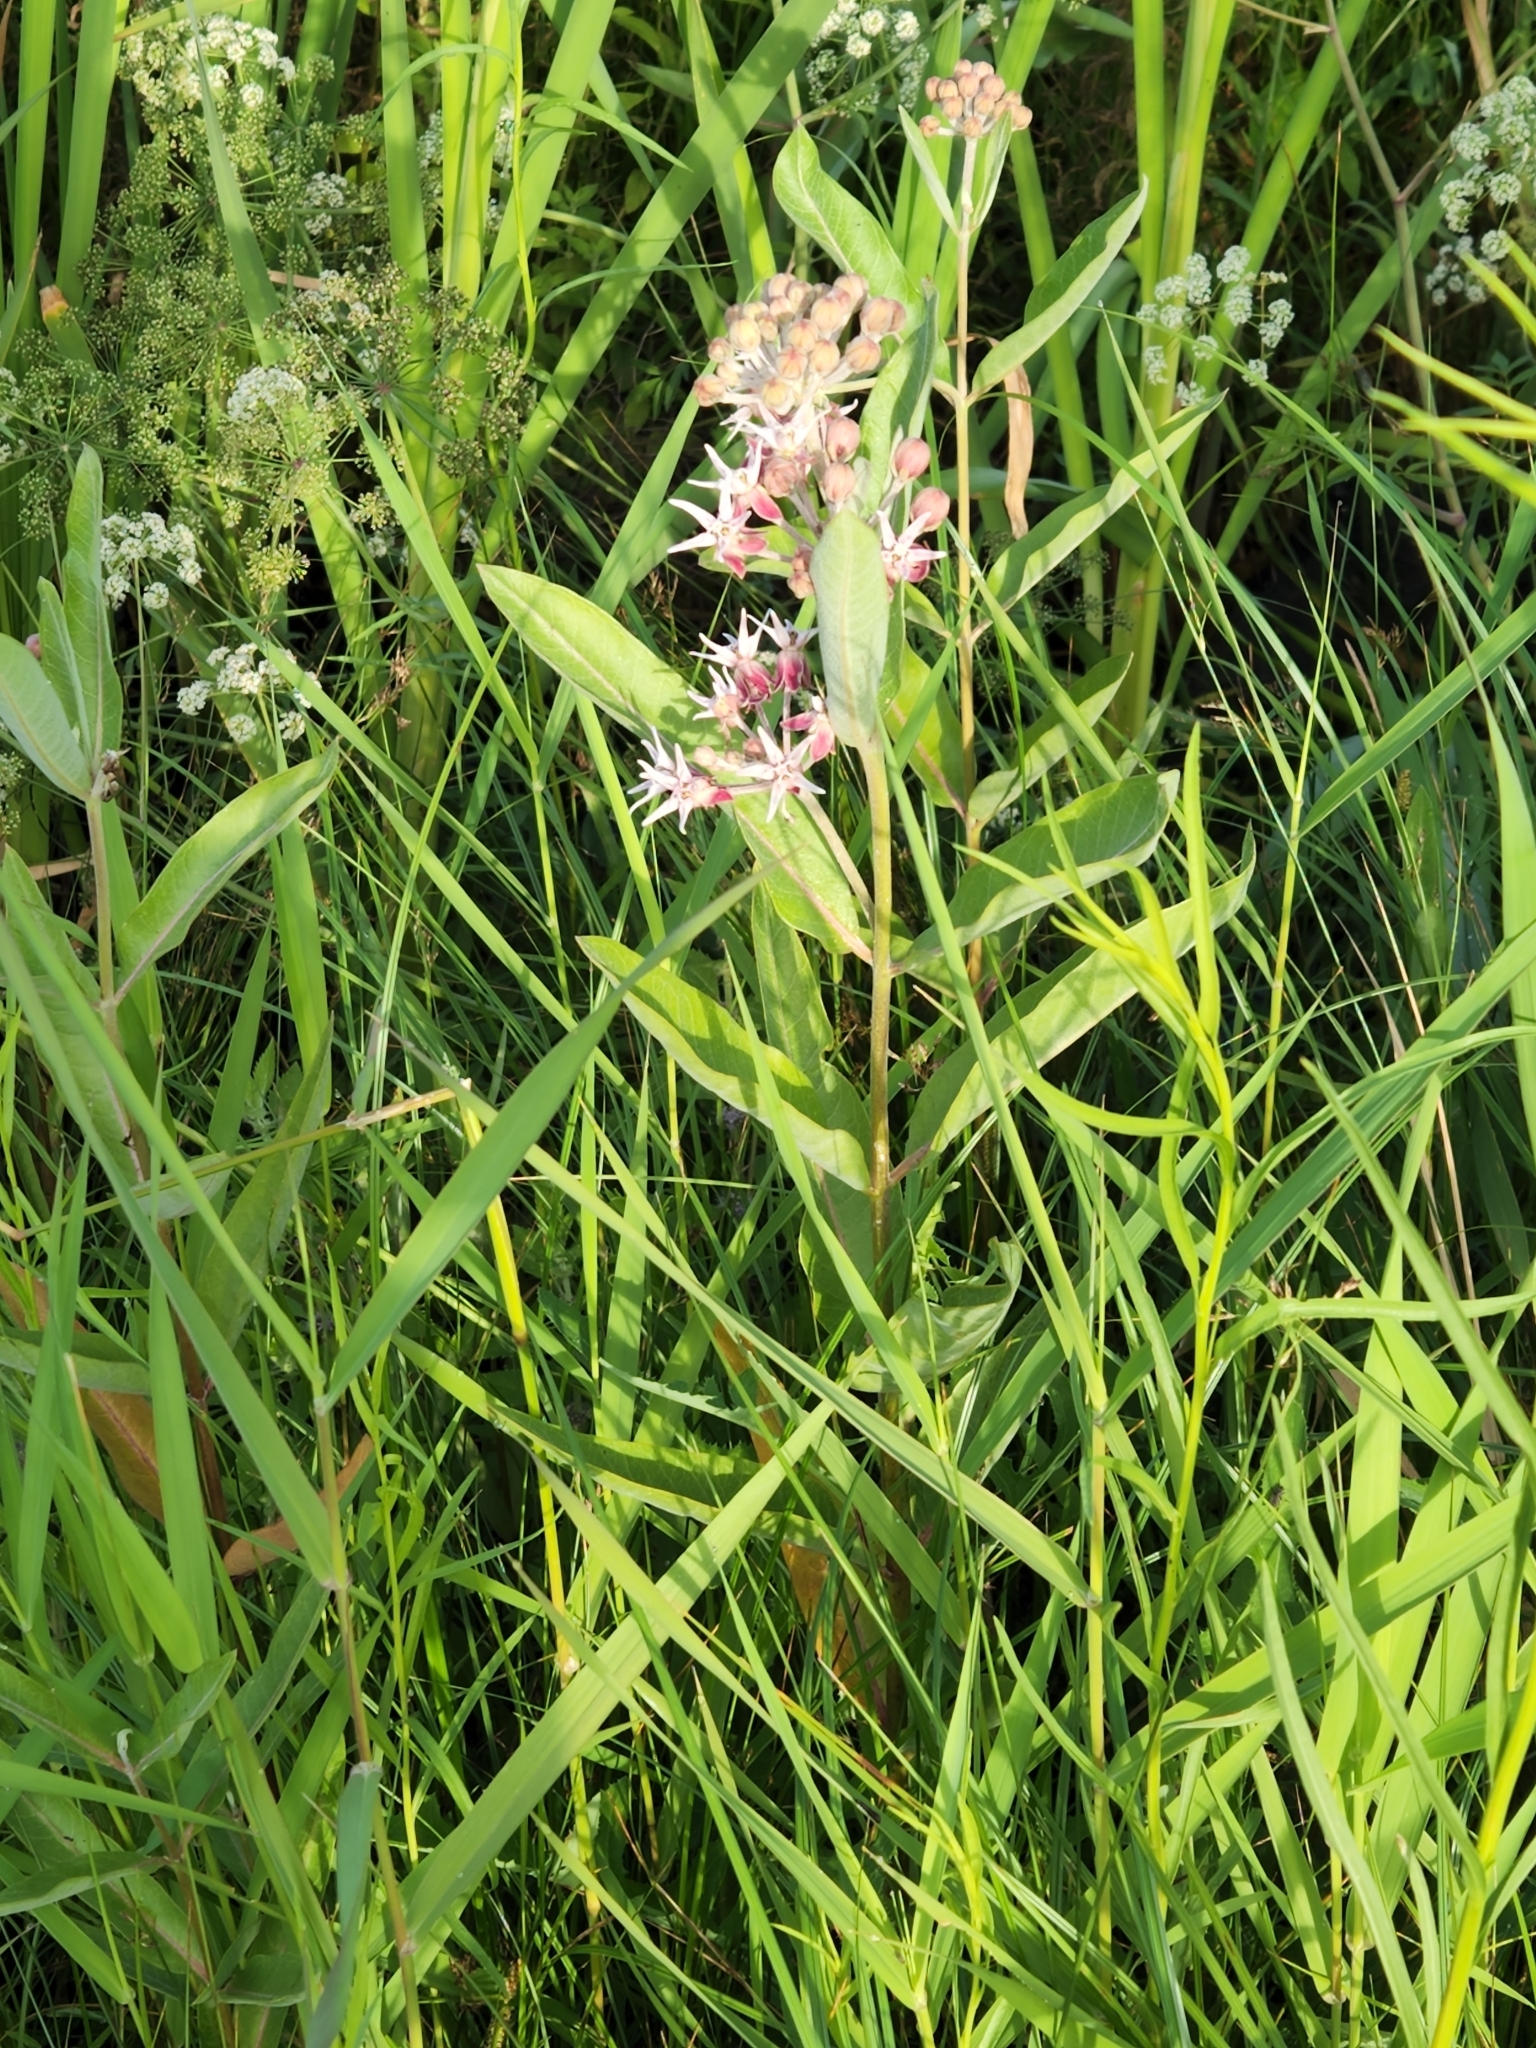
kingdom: Plantae
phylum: Tracheophyta
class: Magnoliopsida
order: Gentianales
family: Apocynaceae
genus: Asclepias
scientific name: Asclepias speciosa
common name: Showy milkweed
